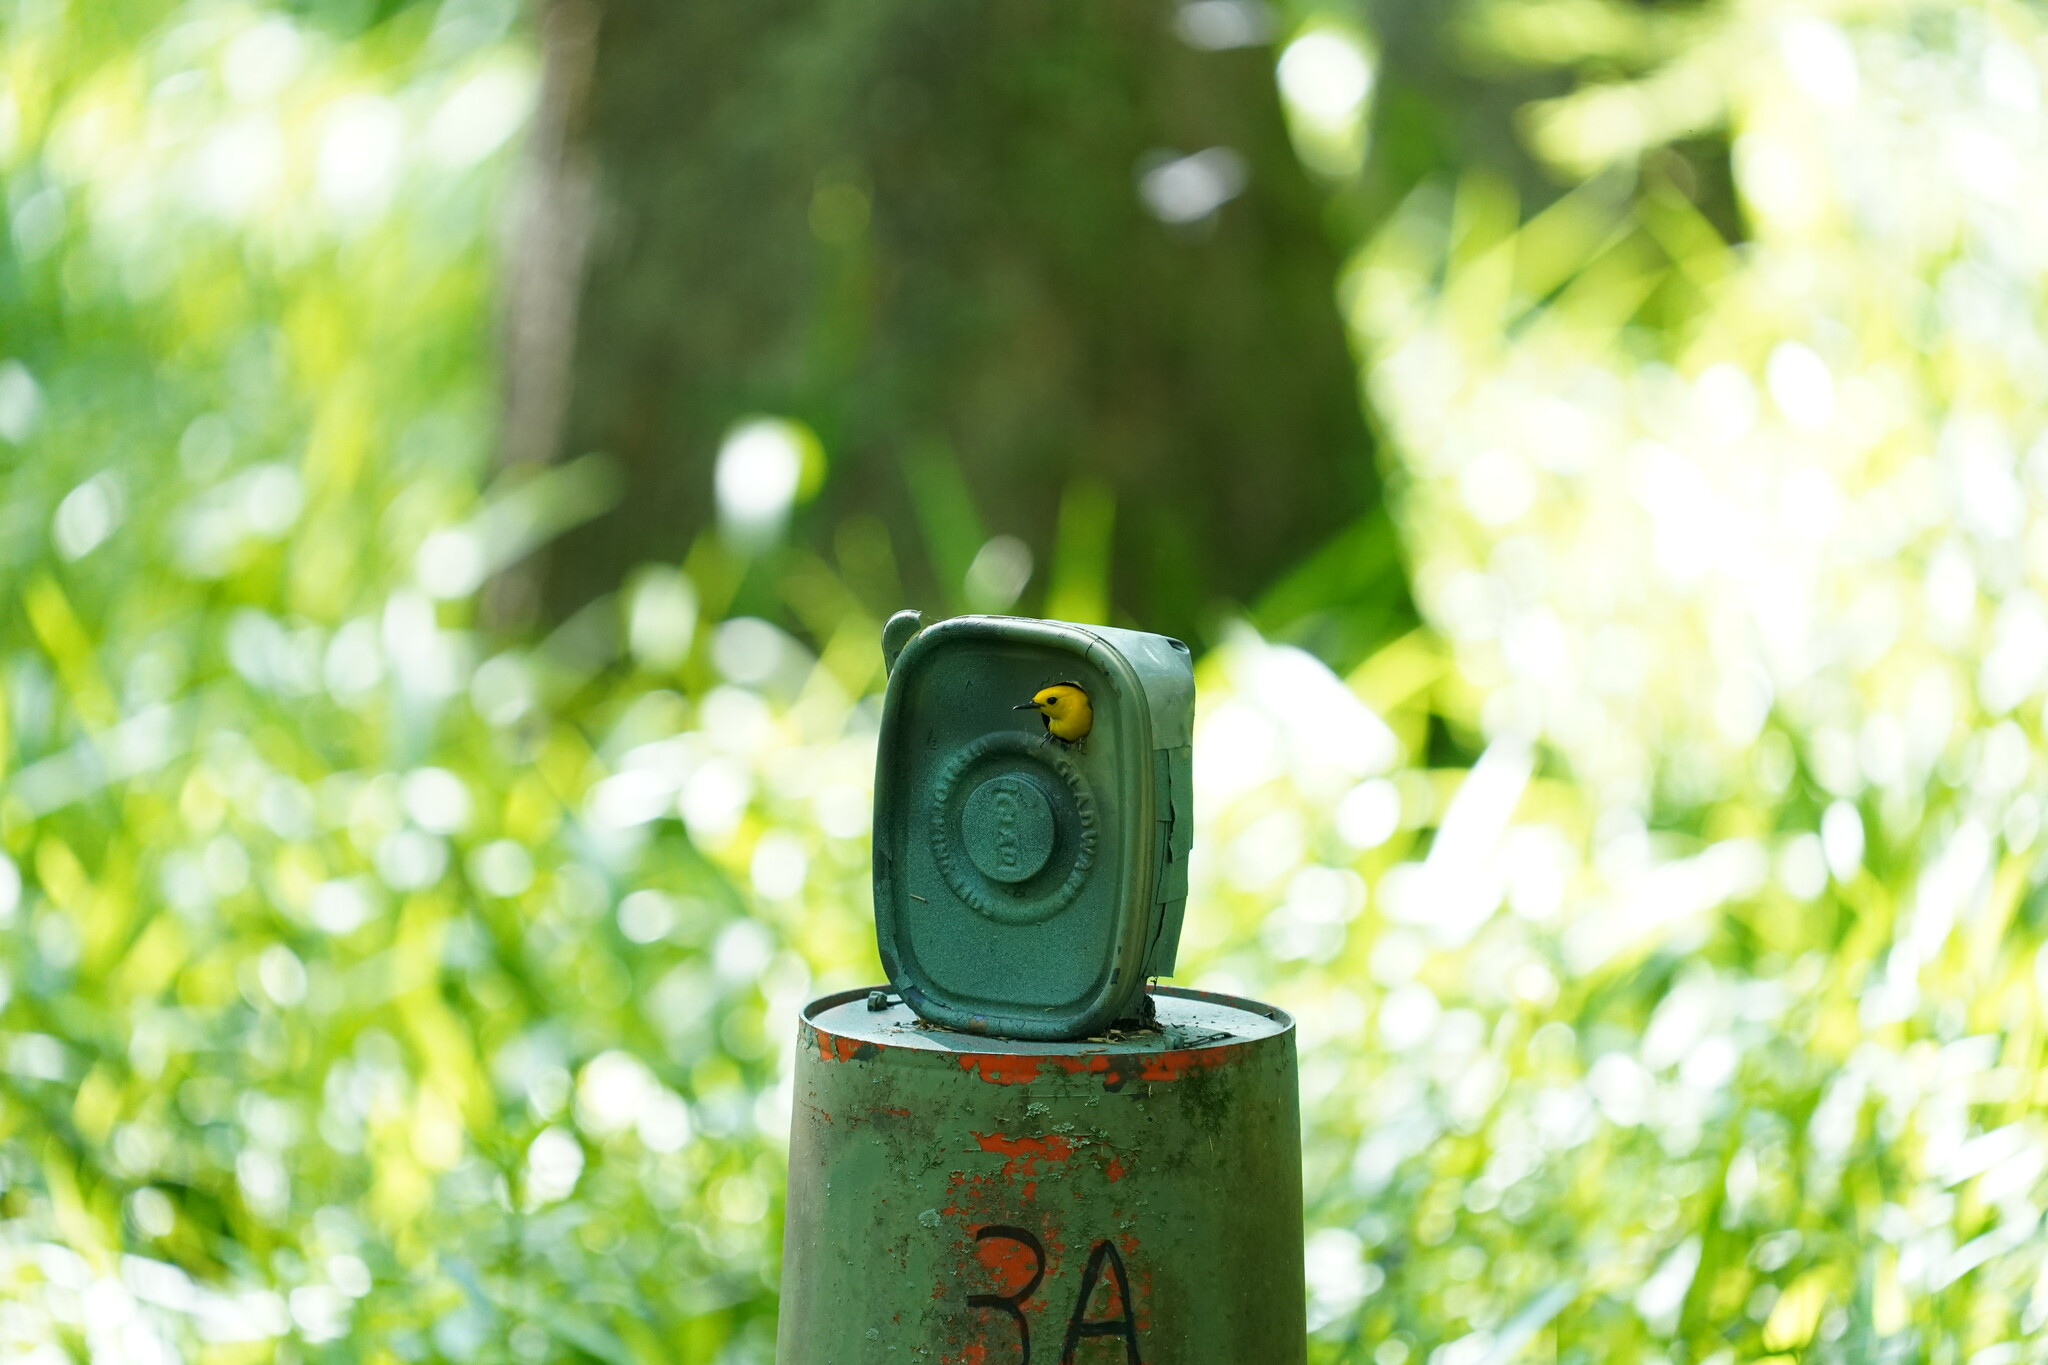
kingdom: Animalia
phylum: Chordata
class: Aves
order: Passeriformes
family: Parulidae
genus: Protonotaria
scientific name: Protonotaria citrea
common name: Prothonotary warbler
